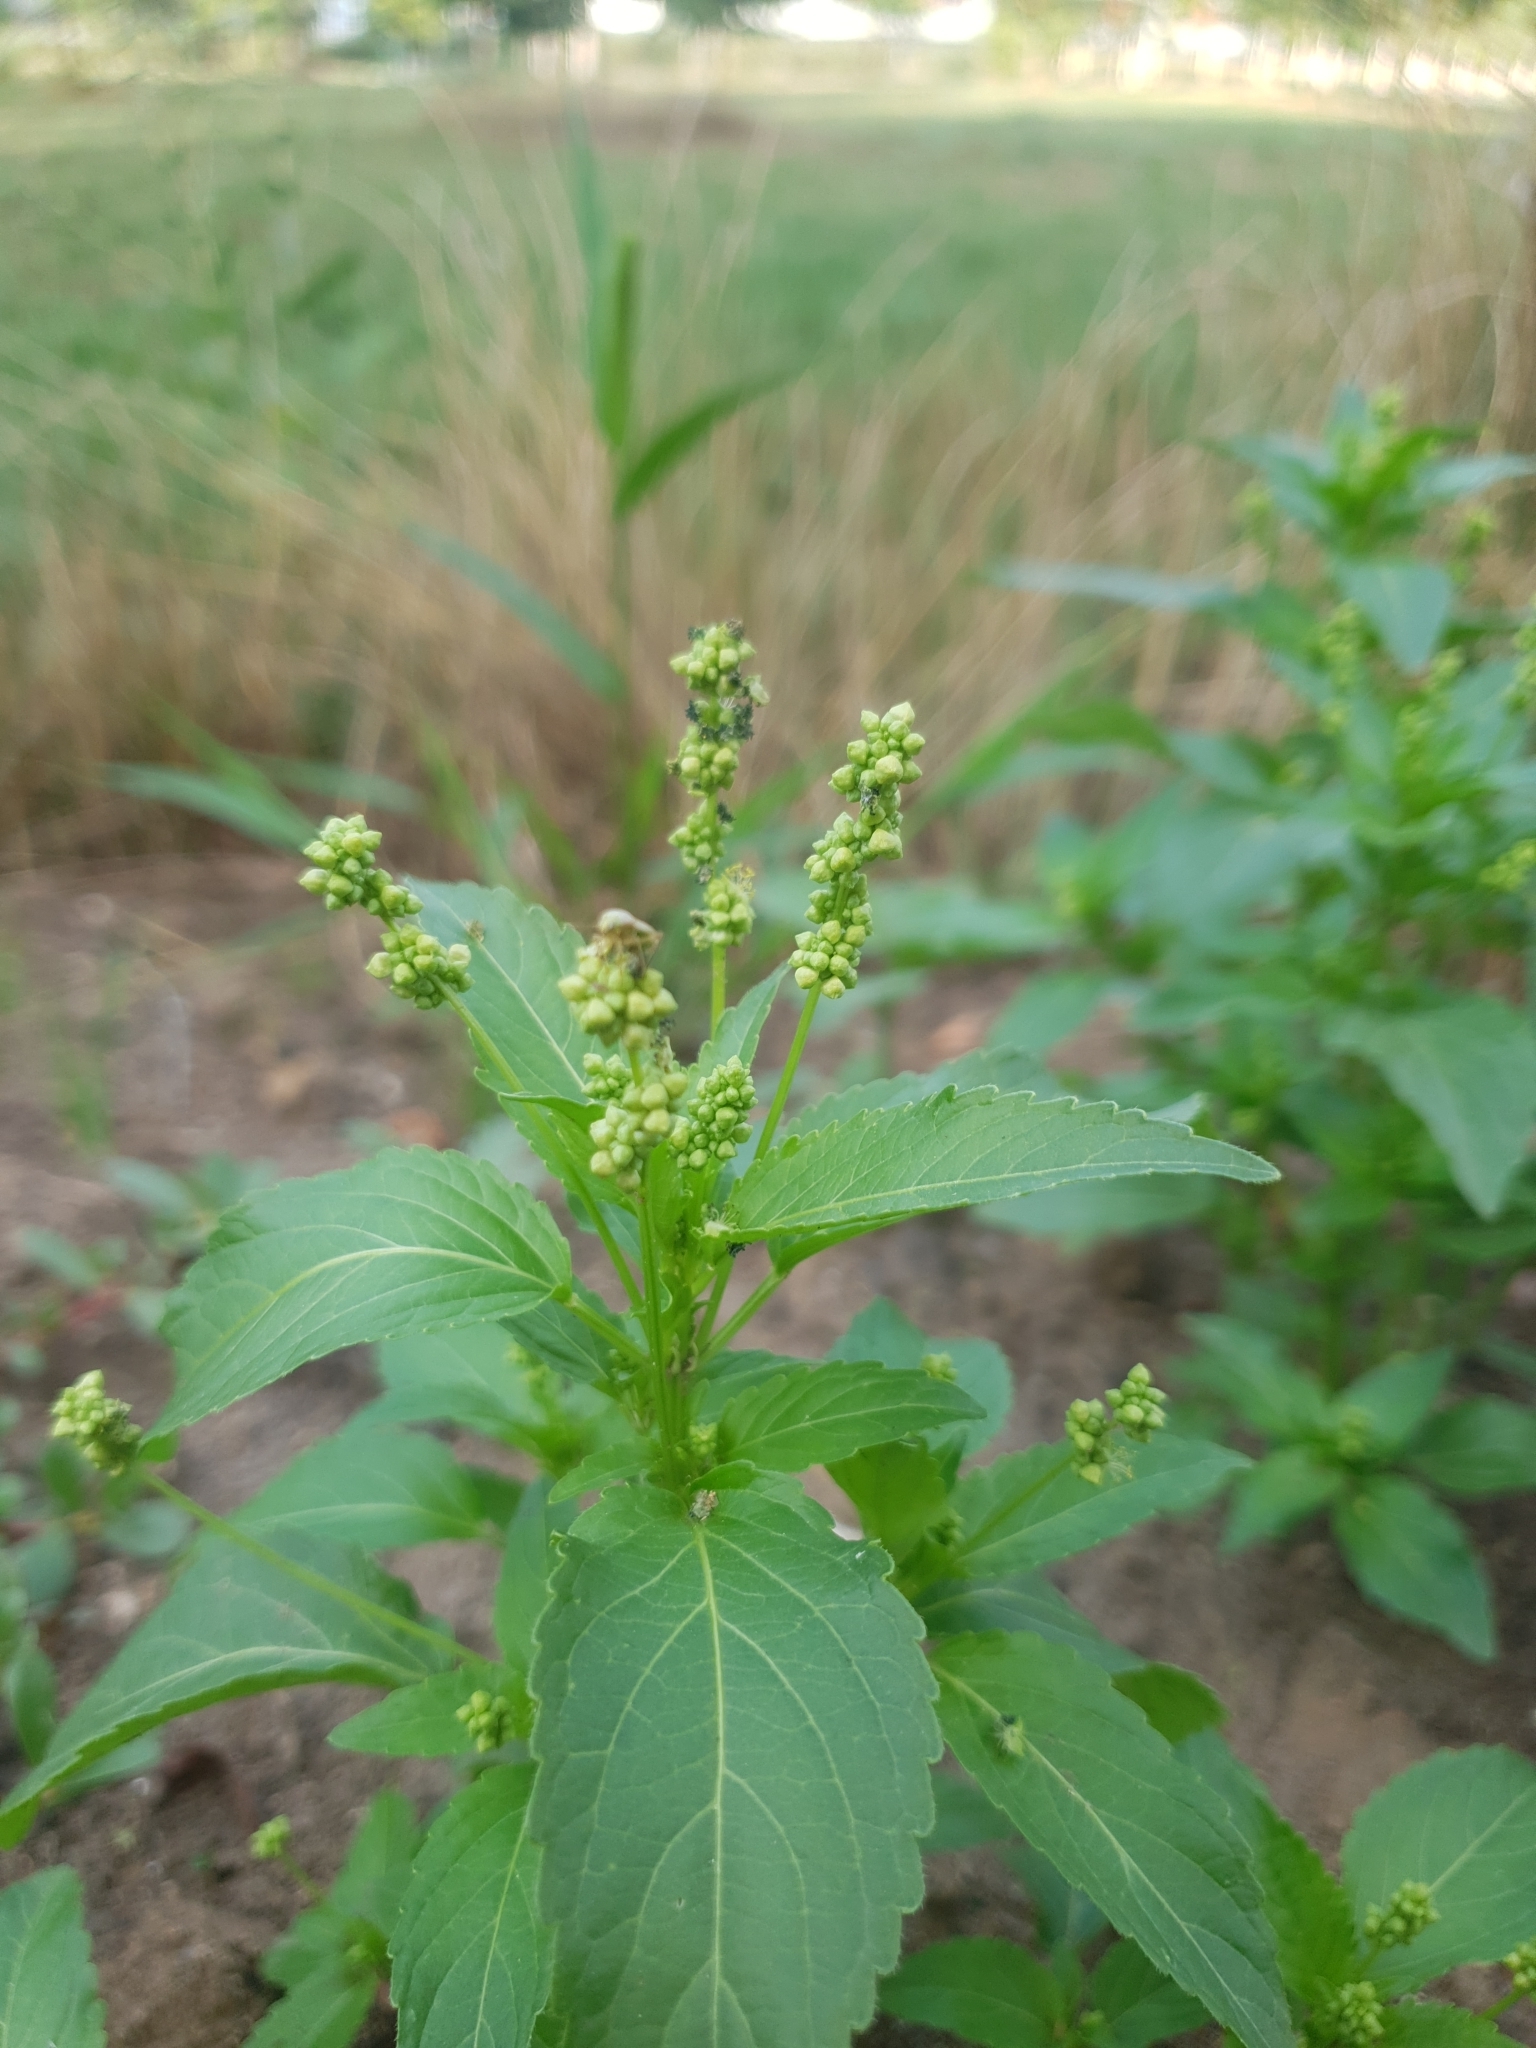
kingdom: Plantae
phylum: Tracheophyta
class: Magnoliopsida
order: Malpighiales
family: Euphorbiaceae
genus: Mercurialis
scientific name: Mercurialis annua
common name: Annual mercury
